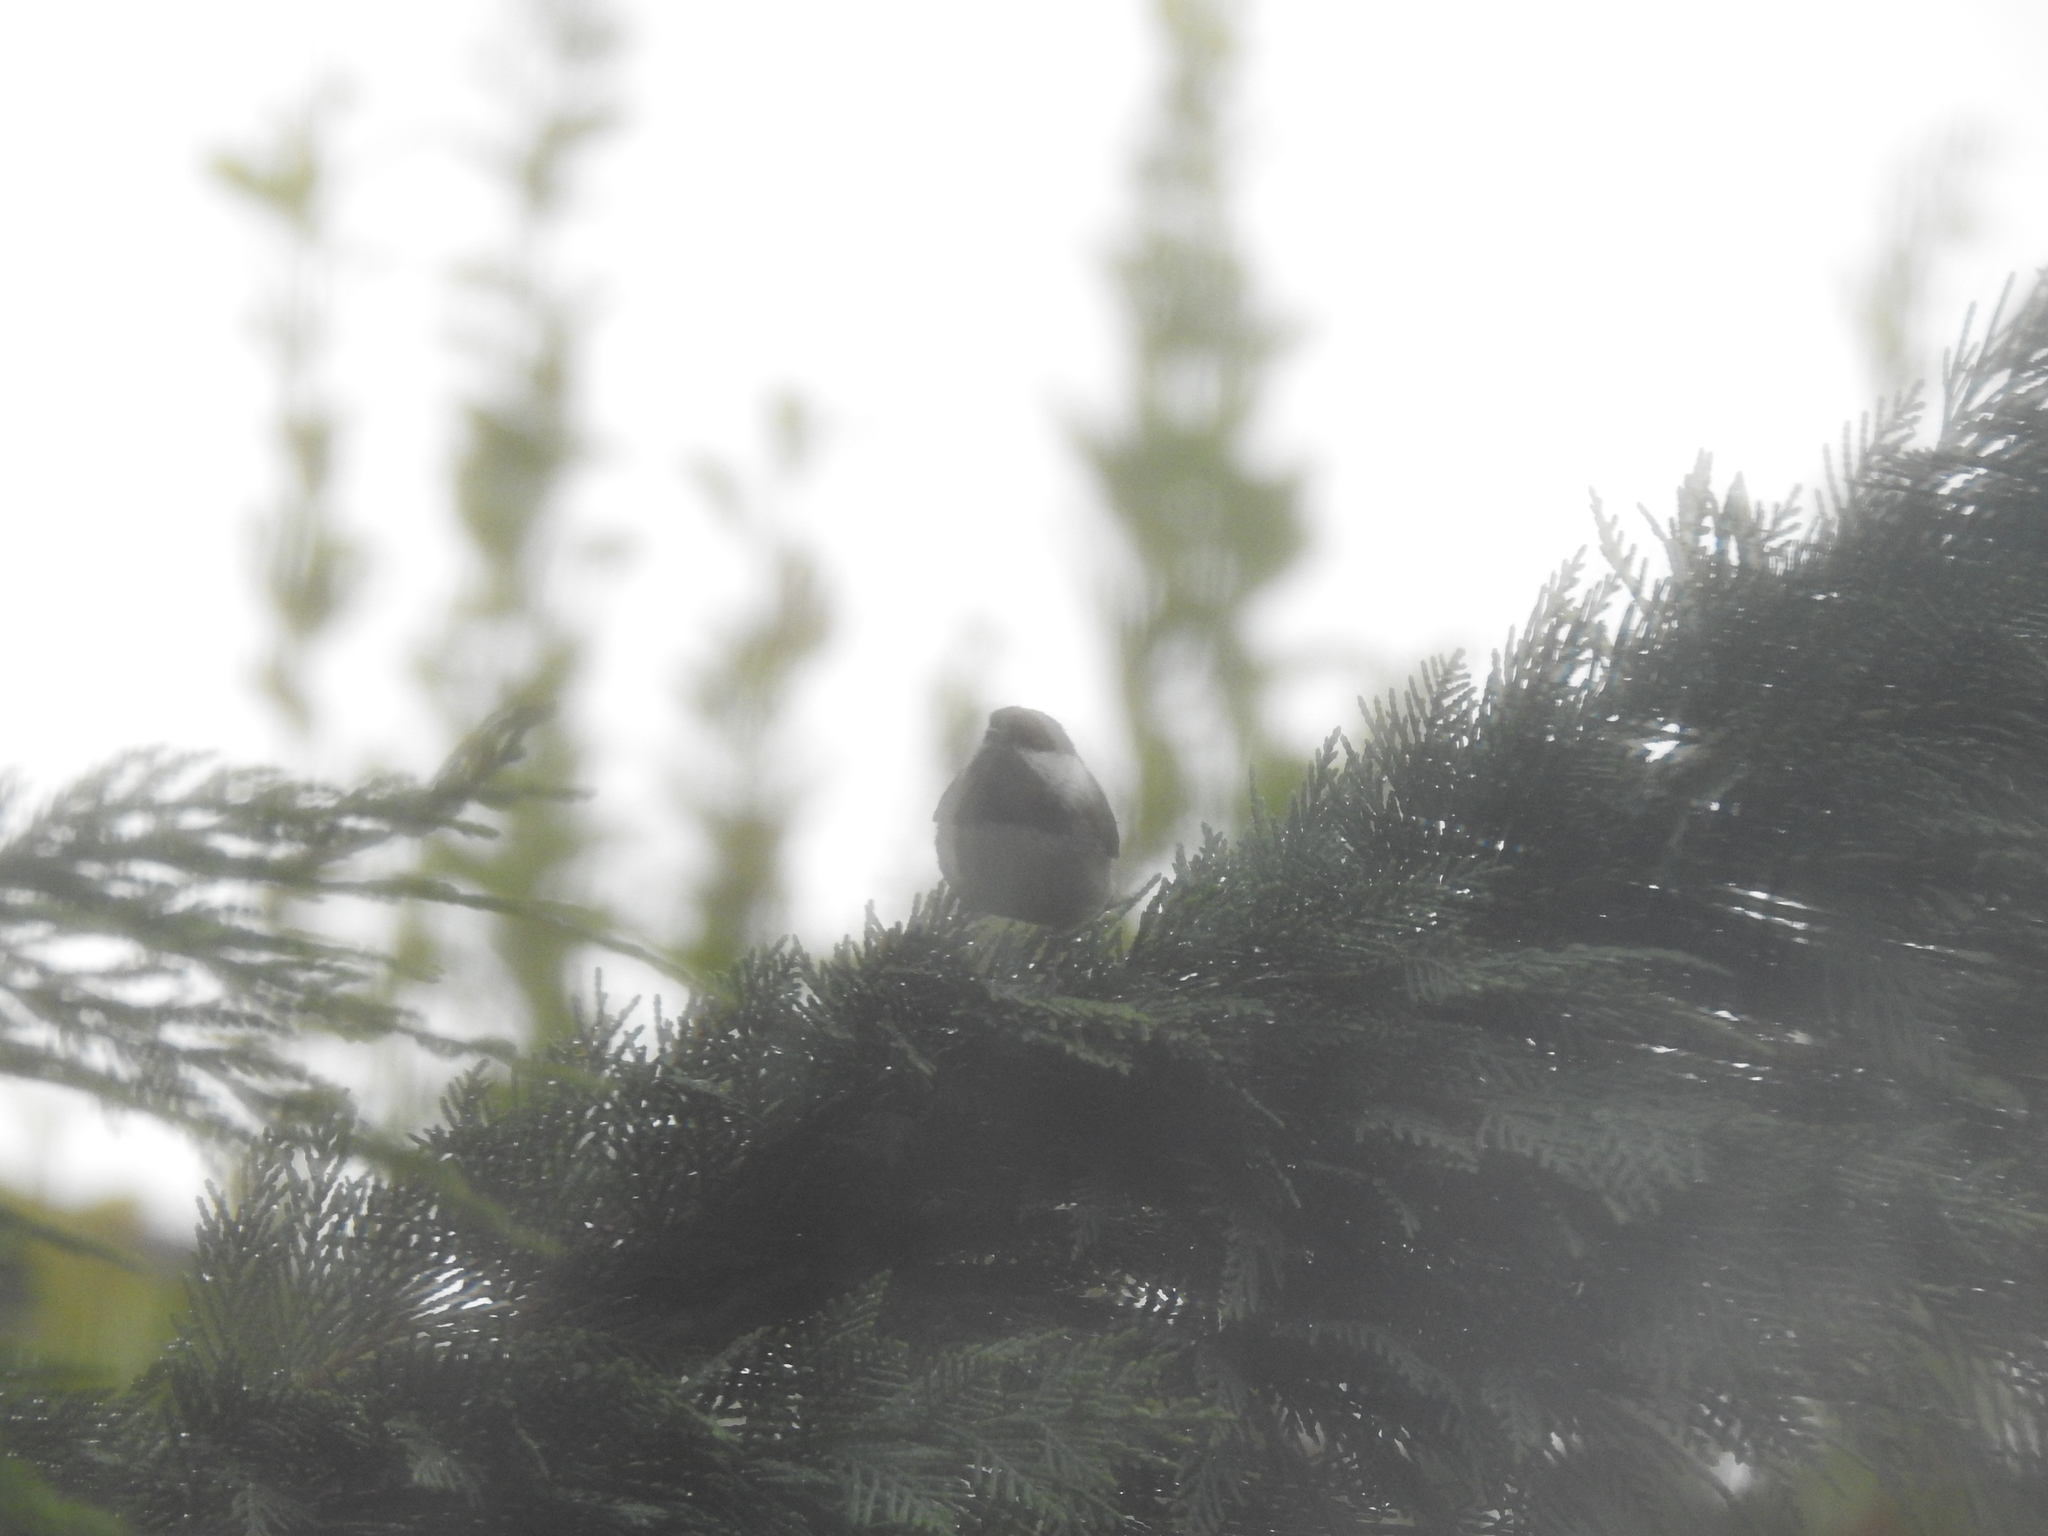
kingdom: Animalia
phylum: Chordata
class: Aves
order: Passeriformes
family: Paridae
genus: Poecile
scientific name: Poecile rufescens
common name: Chestnut-backed chickadee
